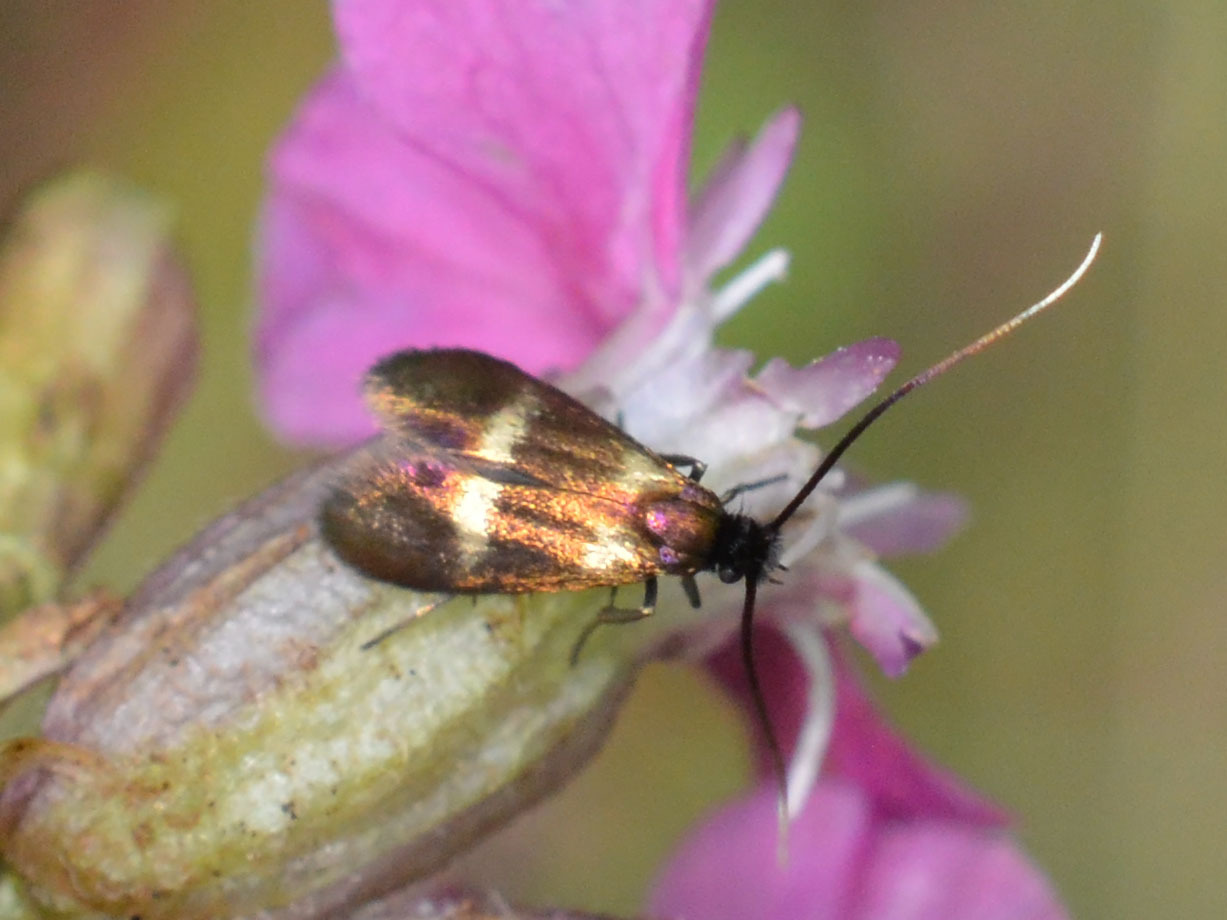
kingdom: Animalia
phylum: Arthropoda
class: Insecta
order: Lepidoptera
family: Adelidae
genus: Cauchas
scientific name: Cauchas fibulella
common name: Little long-horn
